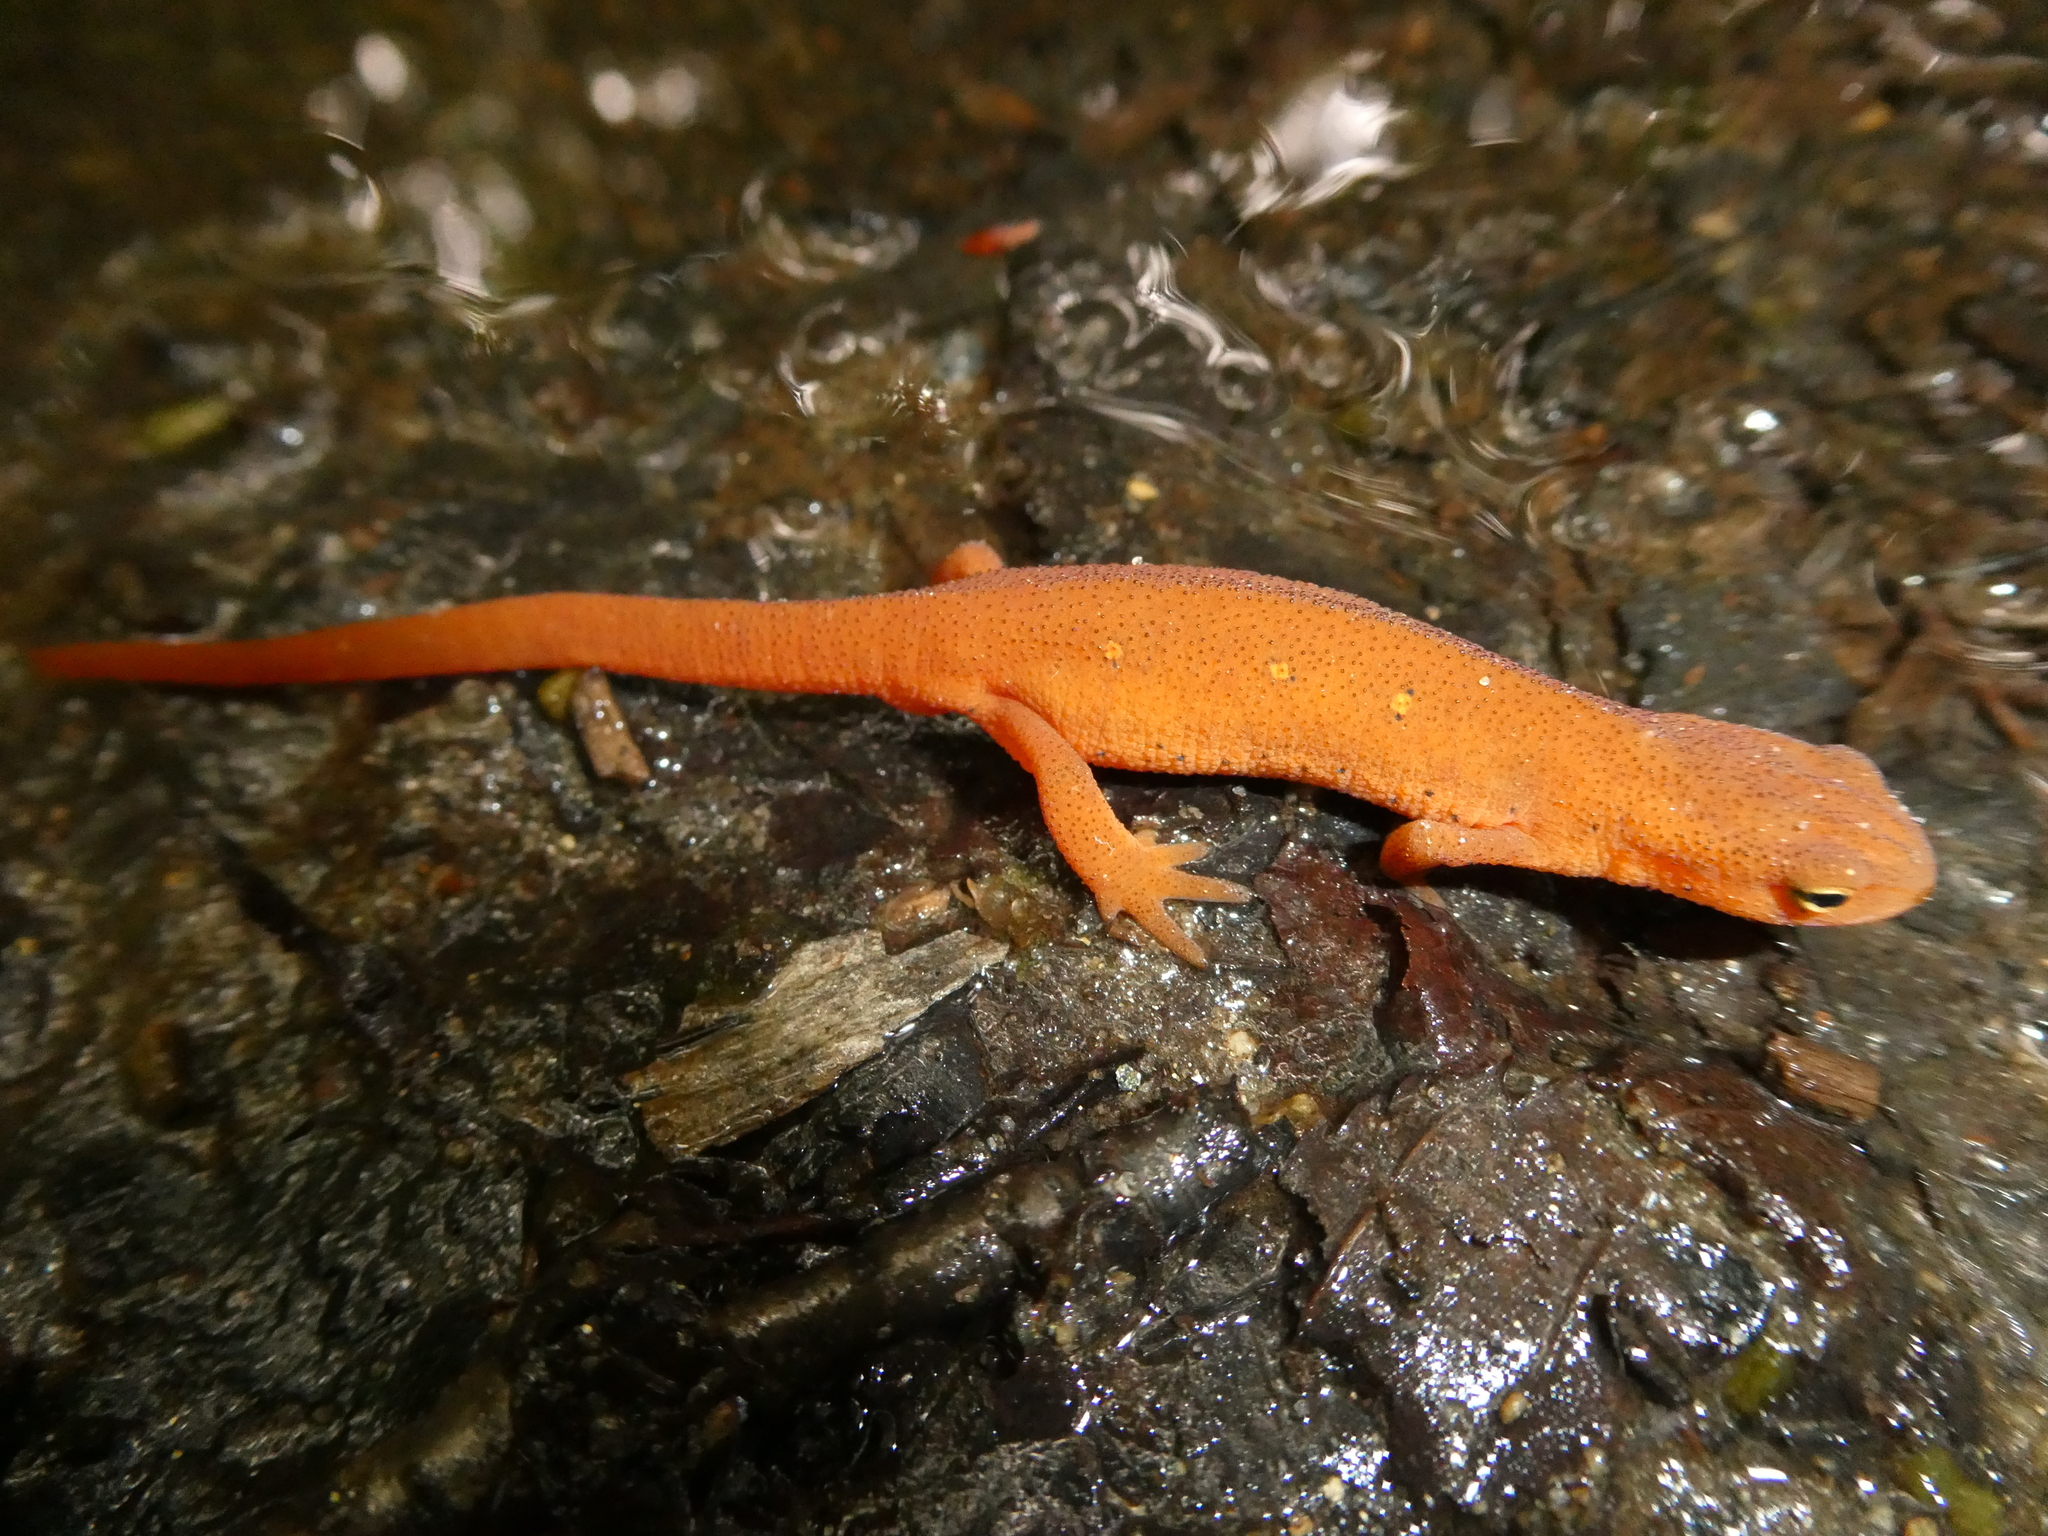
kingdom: Animalia
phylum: Chordata
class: Amphibia
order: Caudata
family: Salamandridae
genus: Notophthalmus
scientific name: Notophthalmus viridescens
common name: Eastern newt
